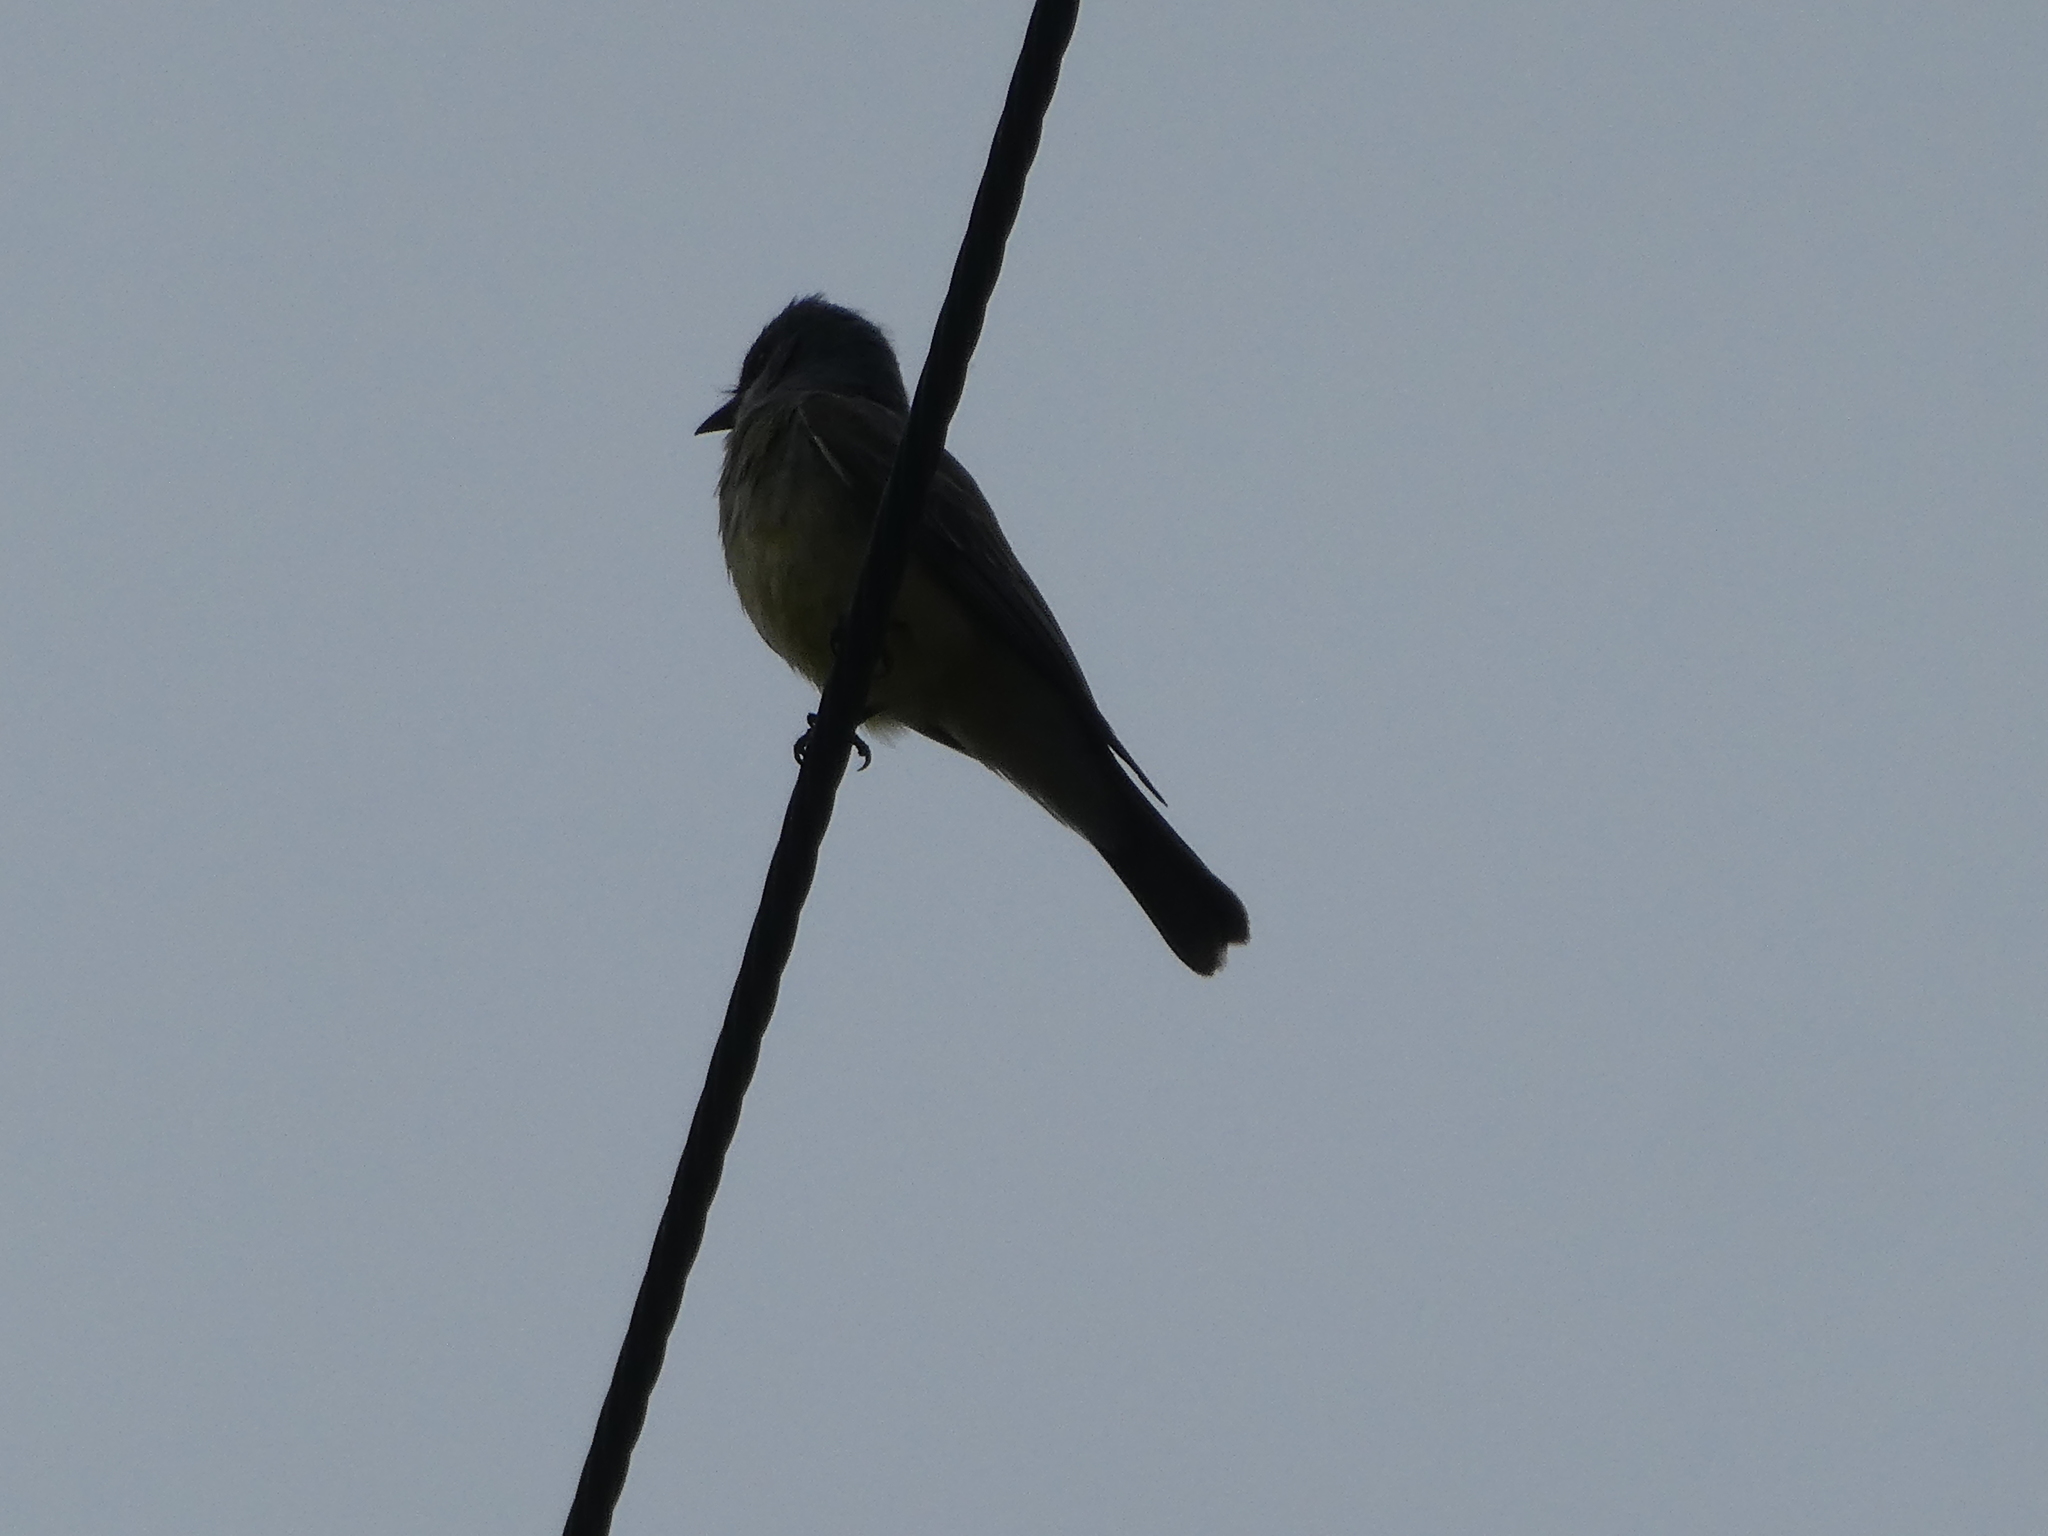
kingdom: Animalia
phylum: Chordata
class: Aves
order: Passeriformes
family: Tyrannidae
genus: Tyrannus
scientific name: Tyrannus
